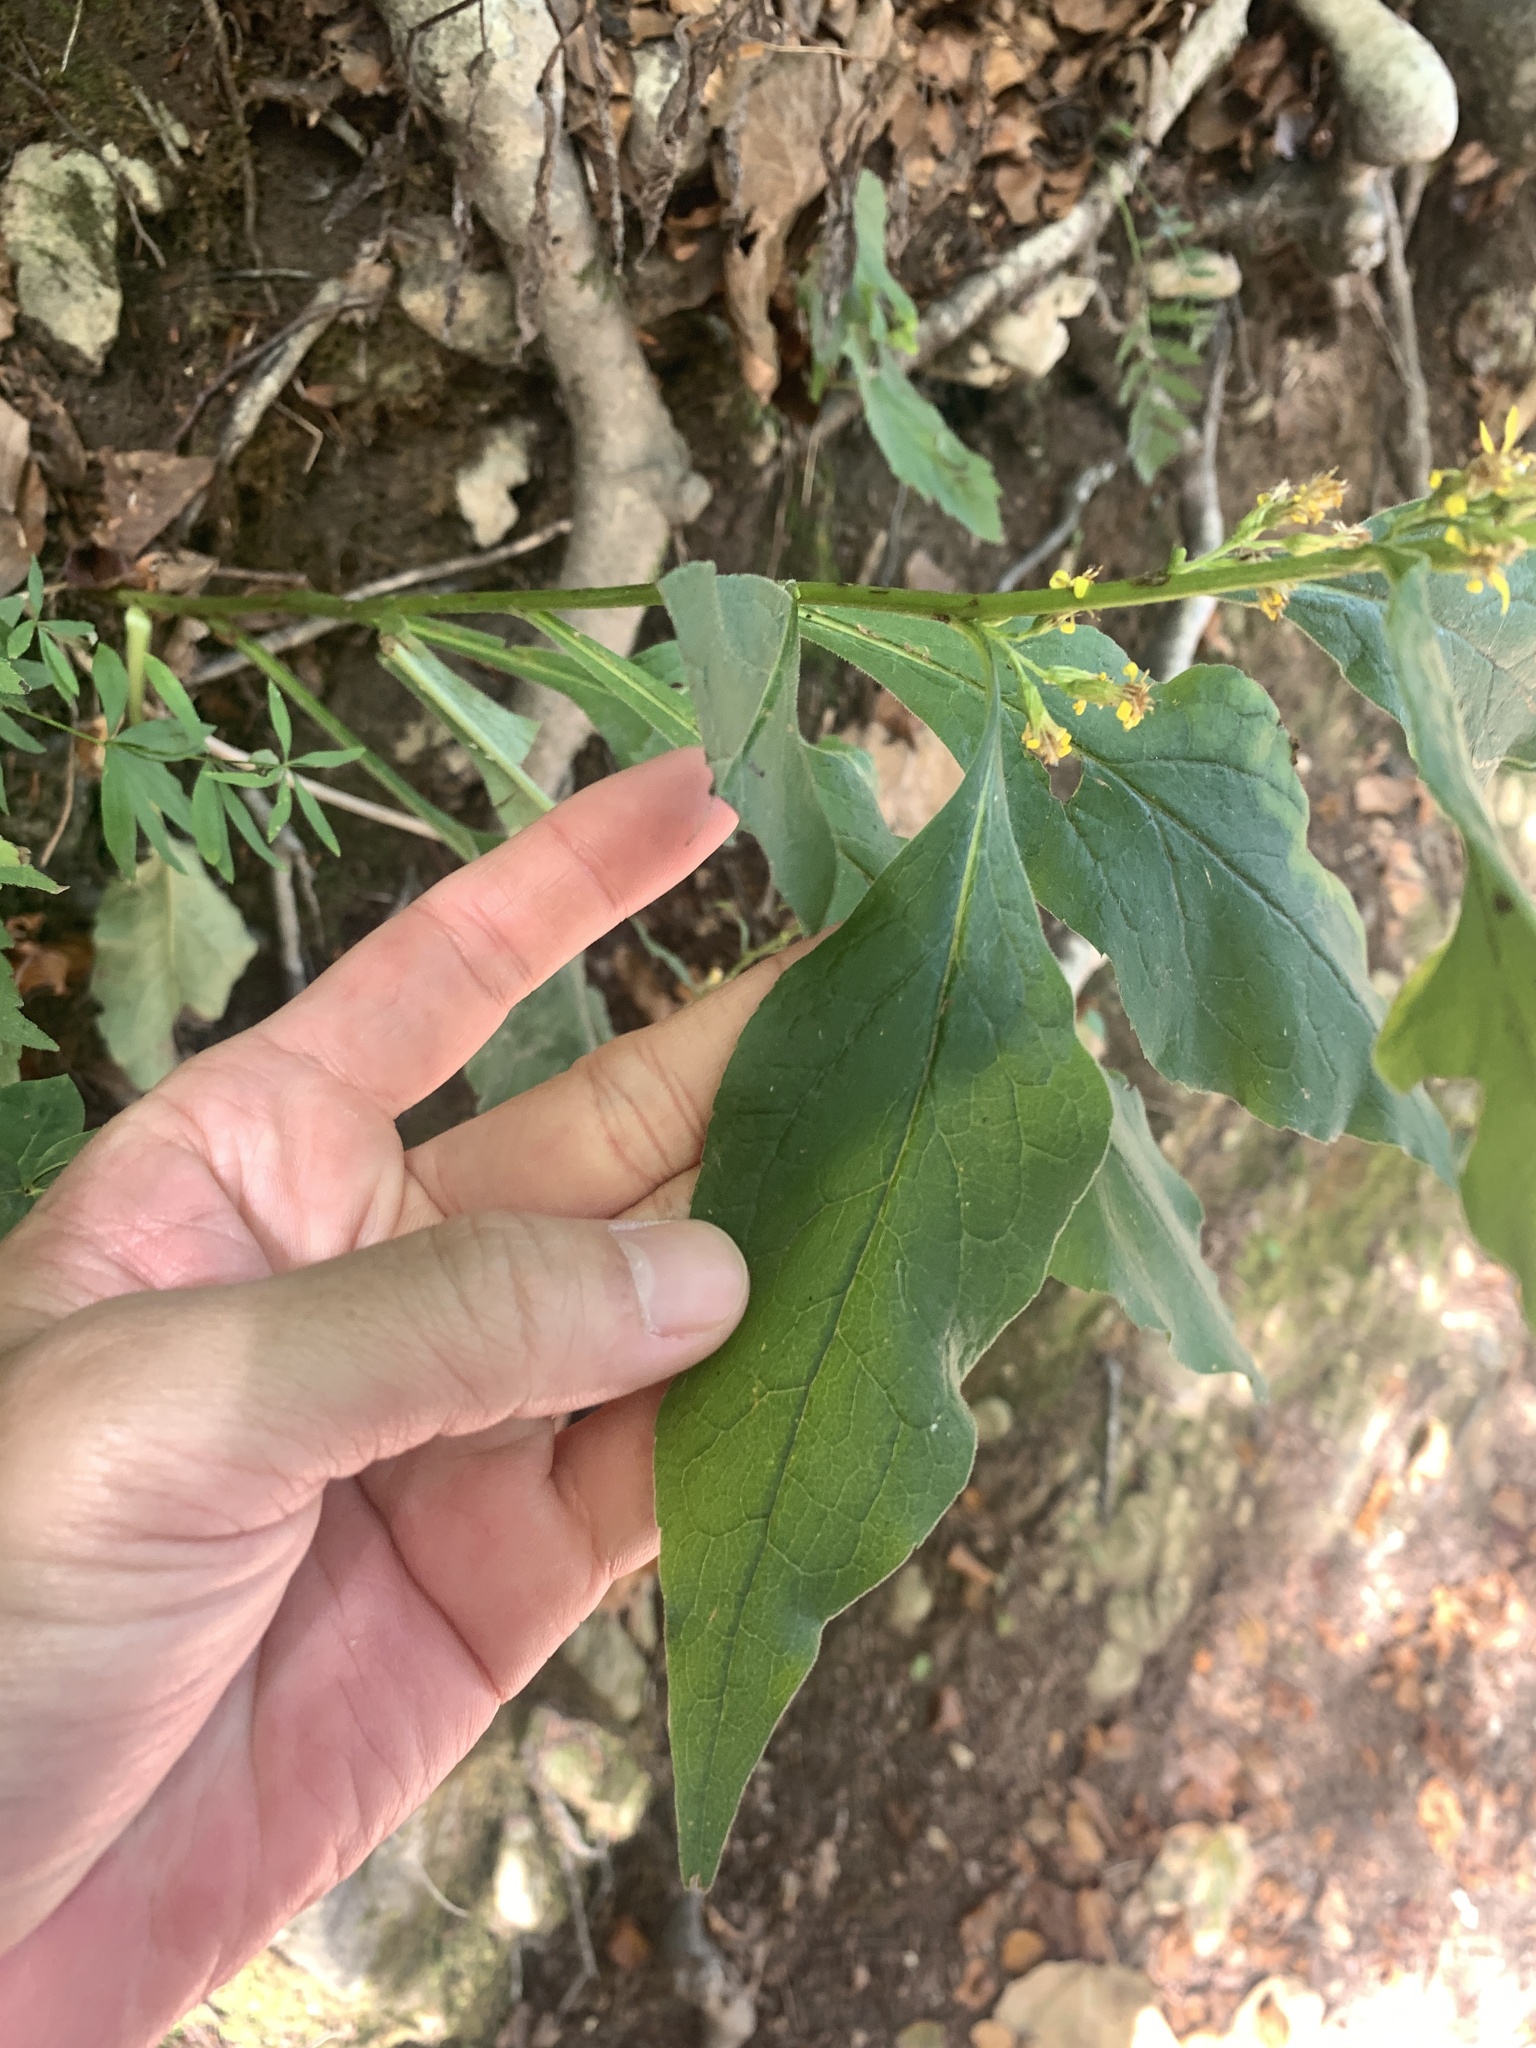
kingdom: Plantae
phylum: Tracheophyta
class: Magnoliopsida
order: Asterales
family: Asteraceae
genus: Solidago
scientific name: Solidago virgaurea
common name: Goldenrod
